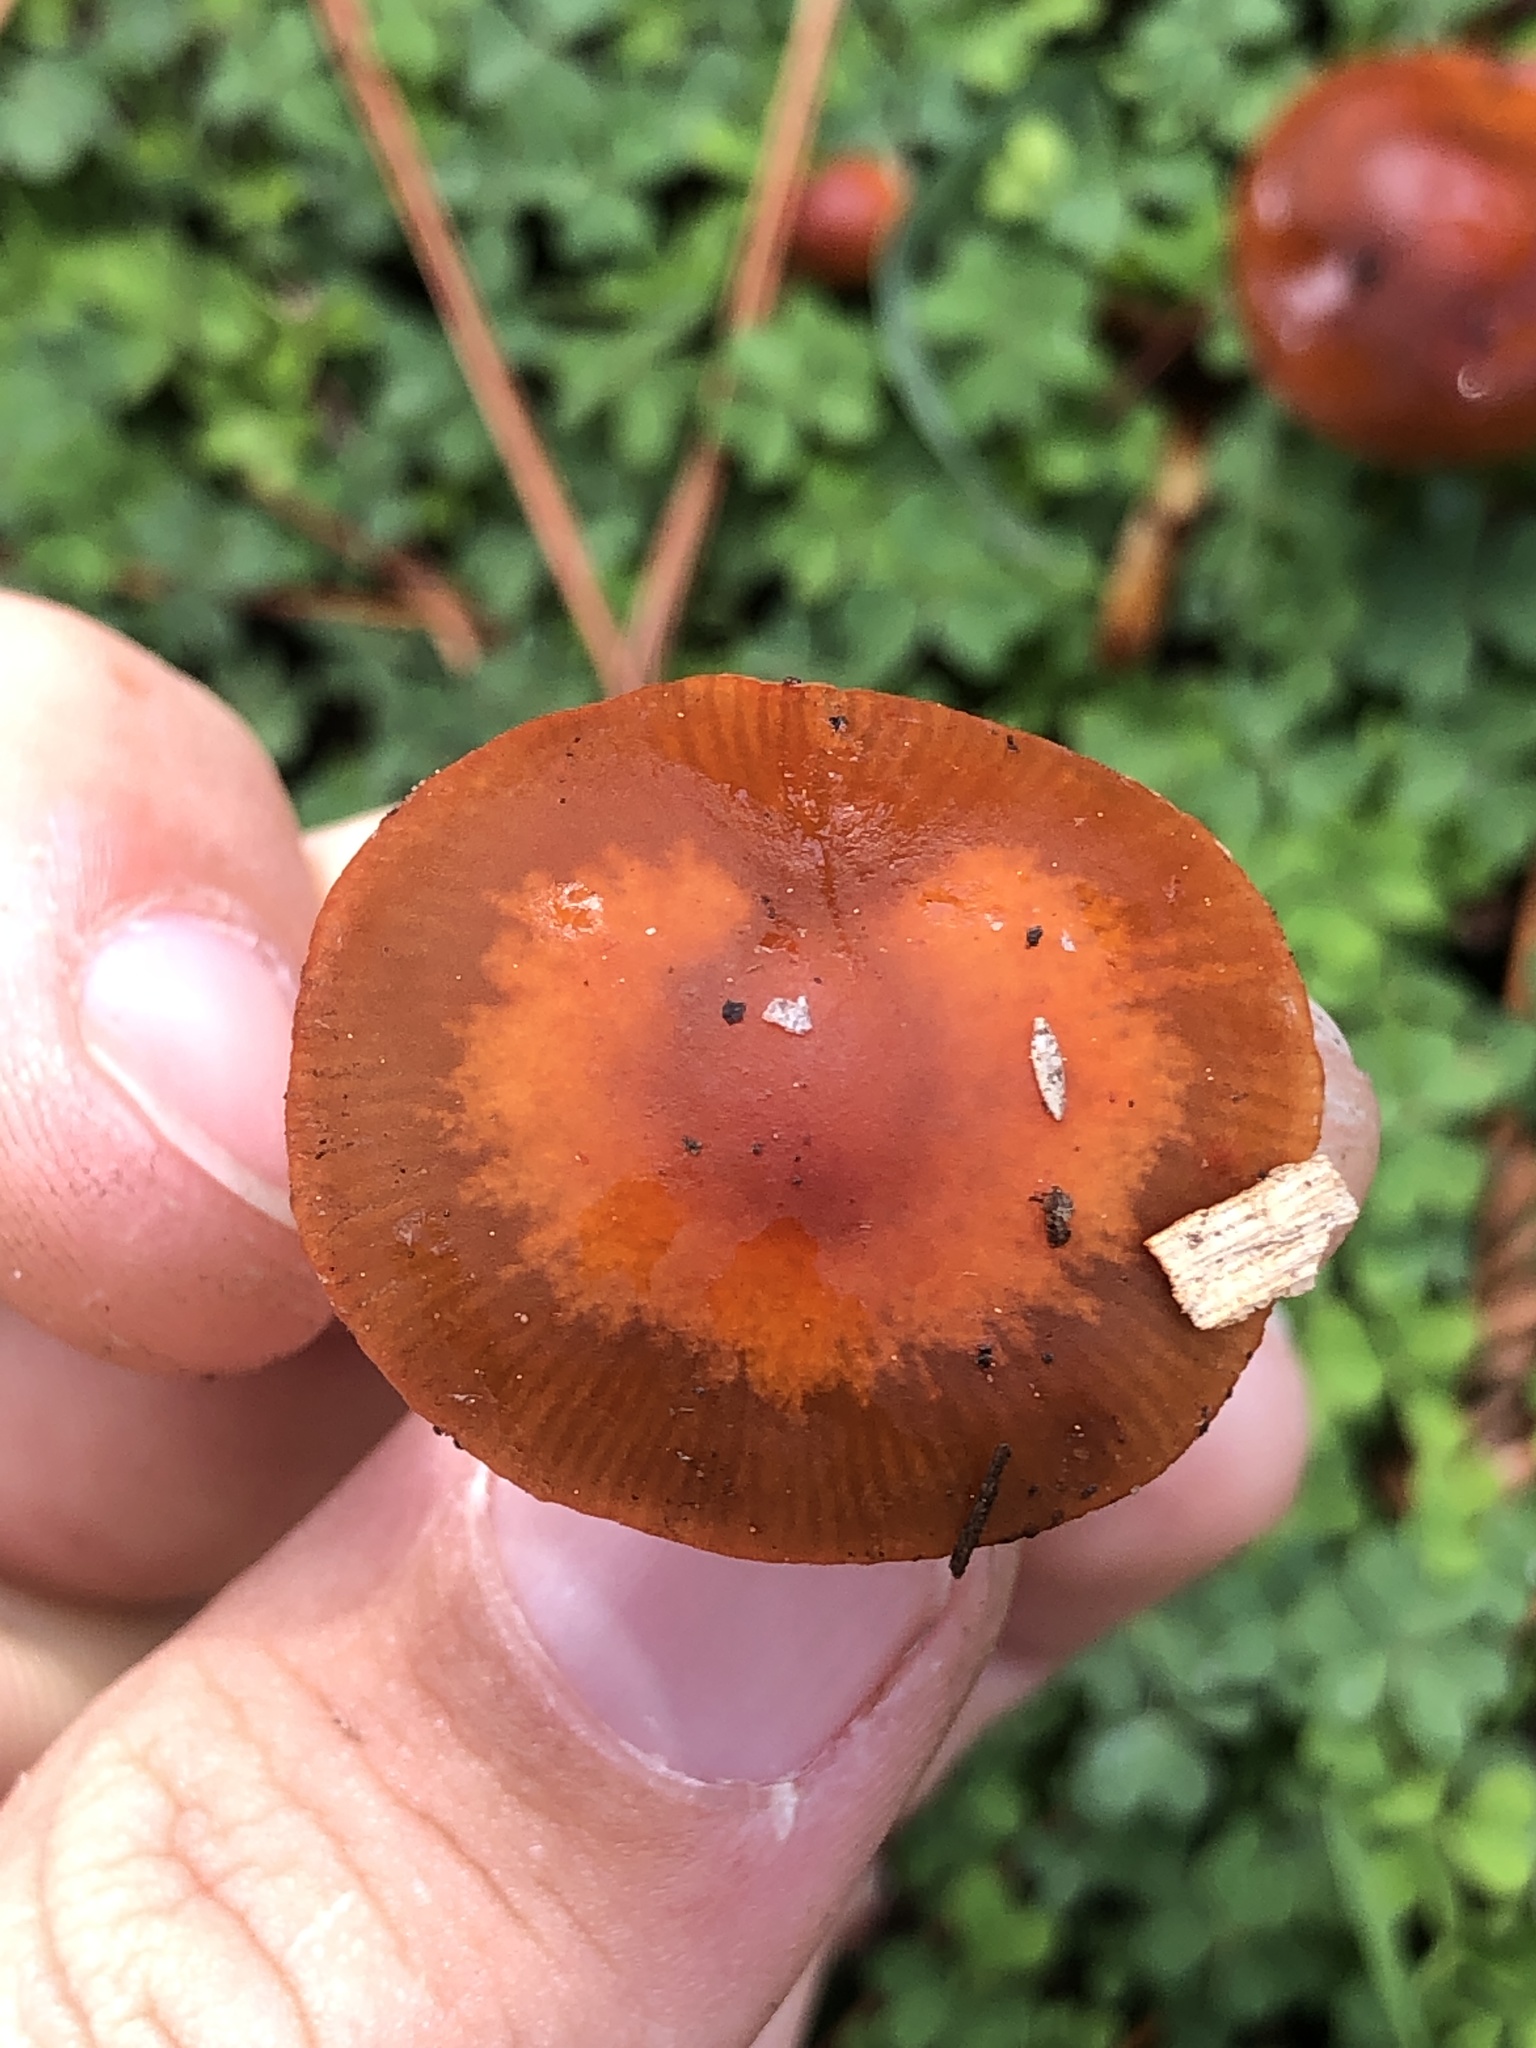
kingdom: Fungi
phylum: Basidiomycota
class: Agaricomycetes
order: Agaricales
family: Strophariaceae
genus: Leratiomyces
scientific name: Leratiomyces ceres
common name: Redlead roundhead
